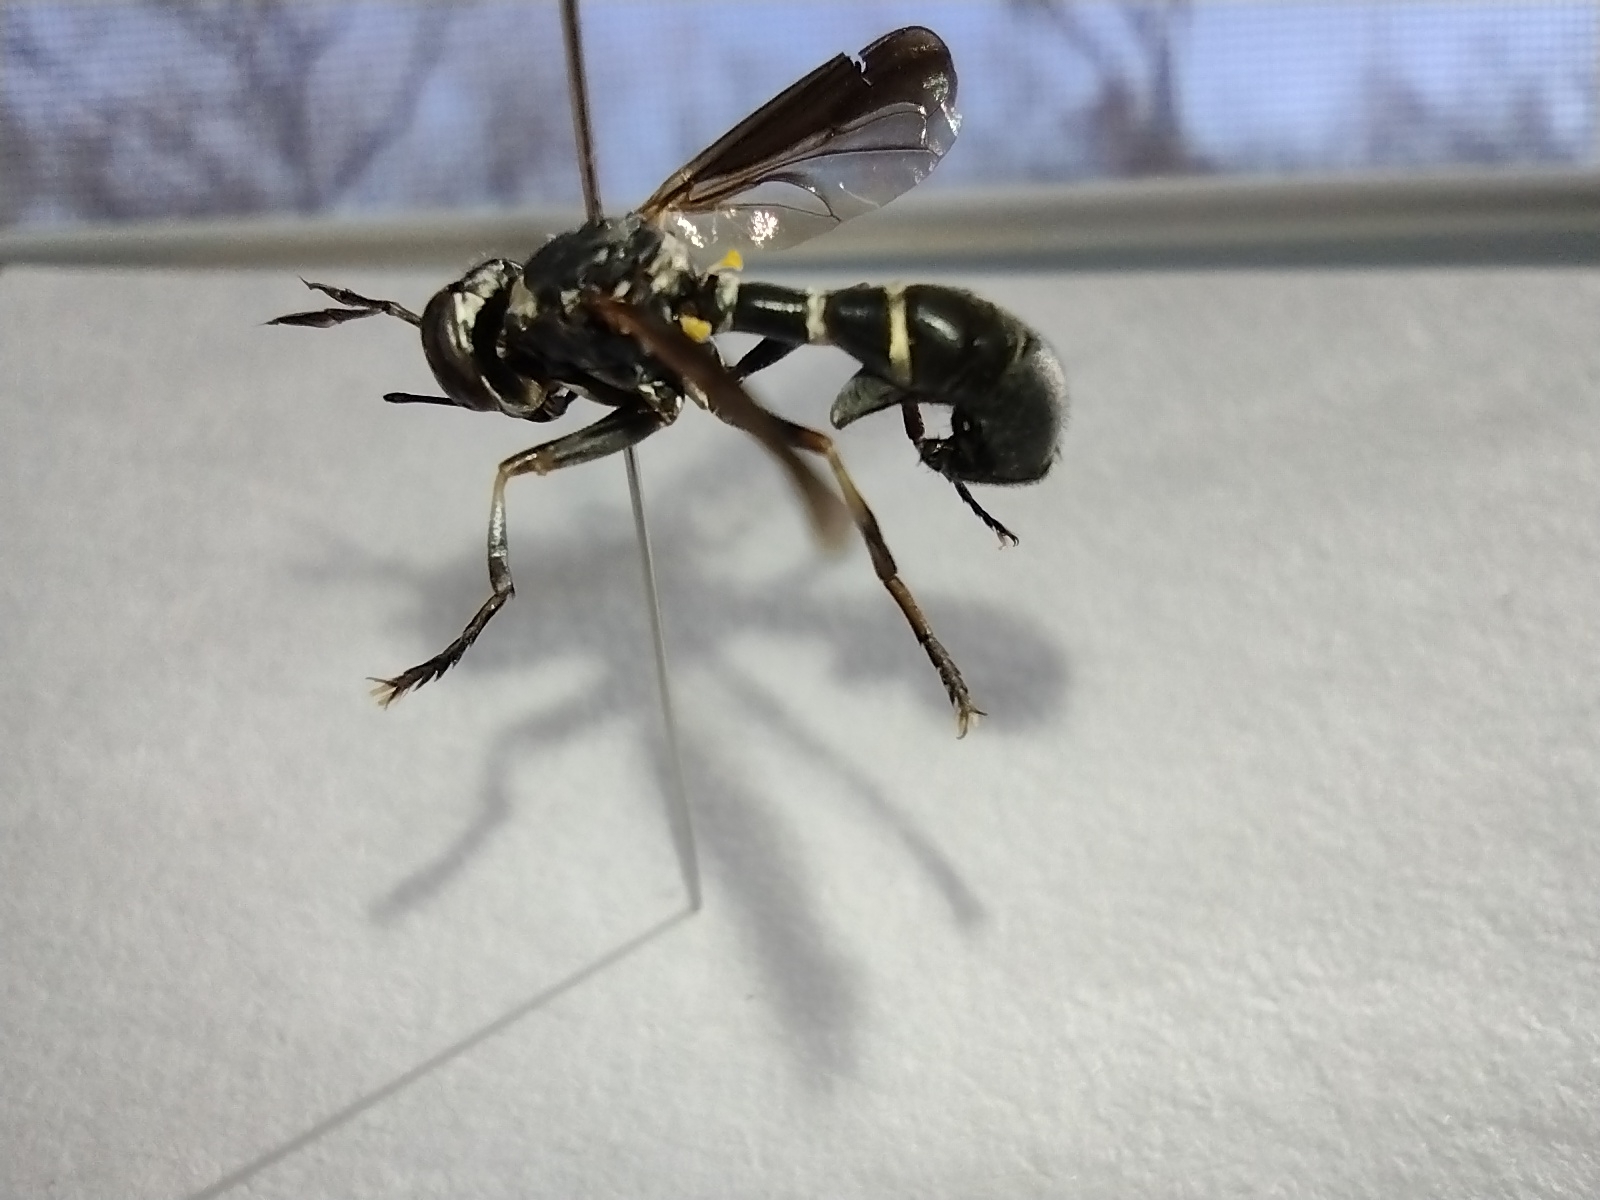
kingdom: Animalia
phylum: Arthropoda
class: Insecta
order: Diptera
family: Conopidae
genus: Physoconops
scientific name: Physoconops bulbirostris
